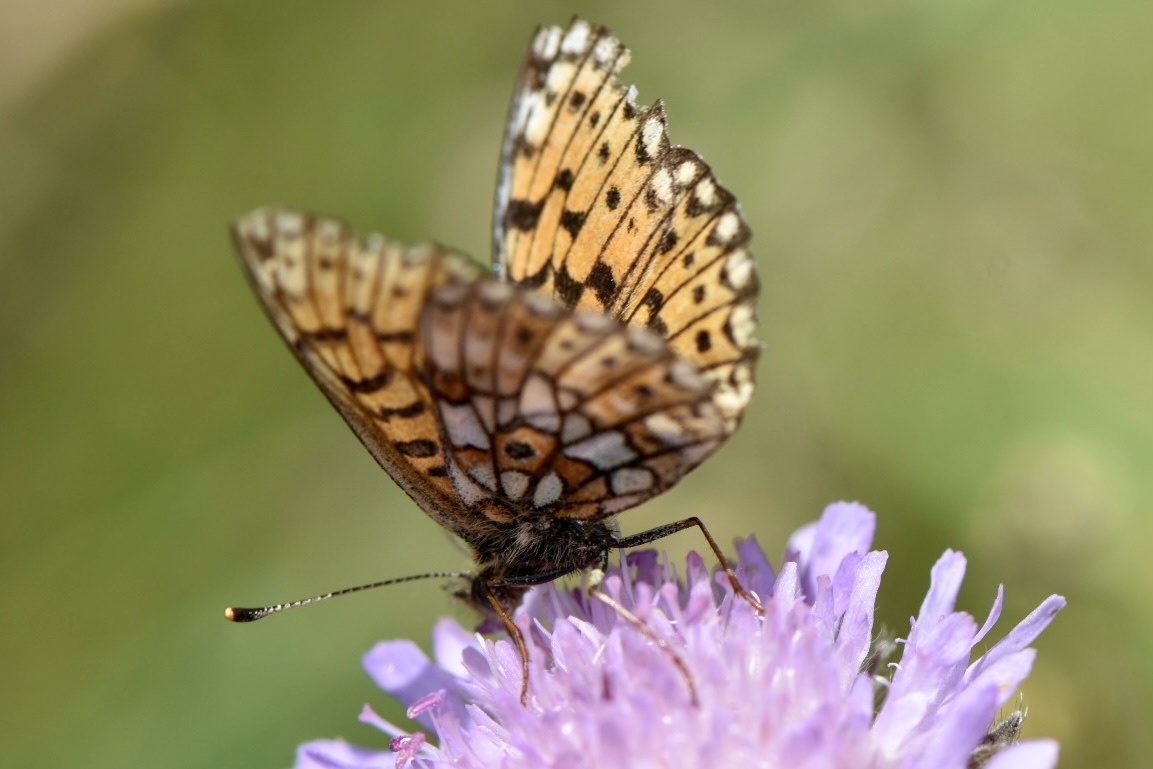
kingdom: Animalia
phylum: Arthropoda
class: Insecta
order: Lepidoptera
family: Nymphalidae
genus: Boloria
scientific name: Boloria selene
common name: Small pearl-bordered fritillary
